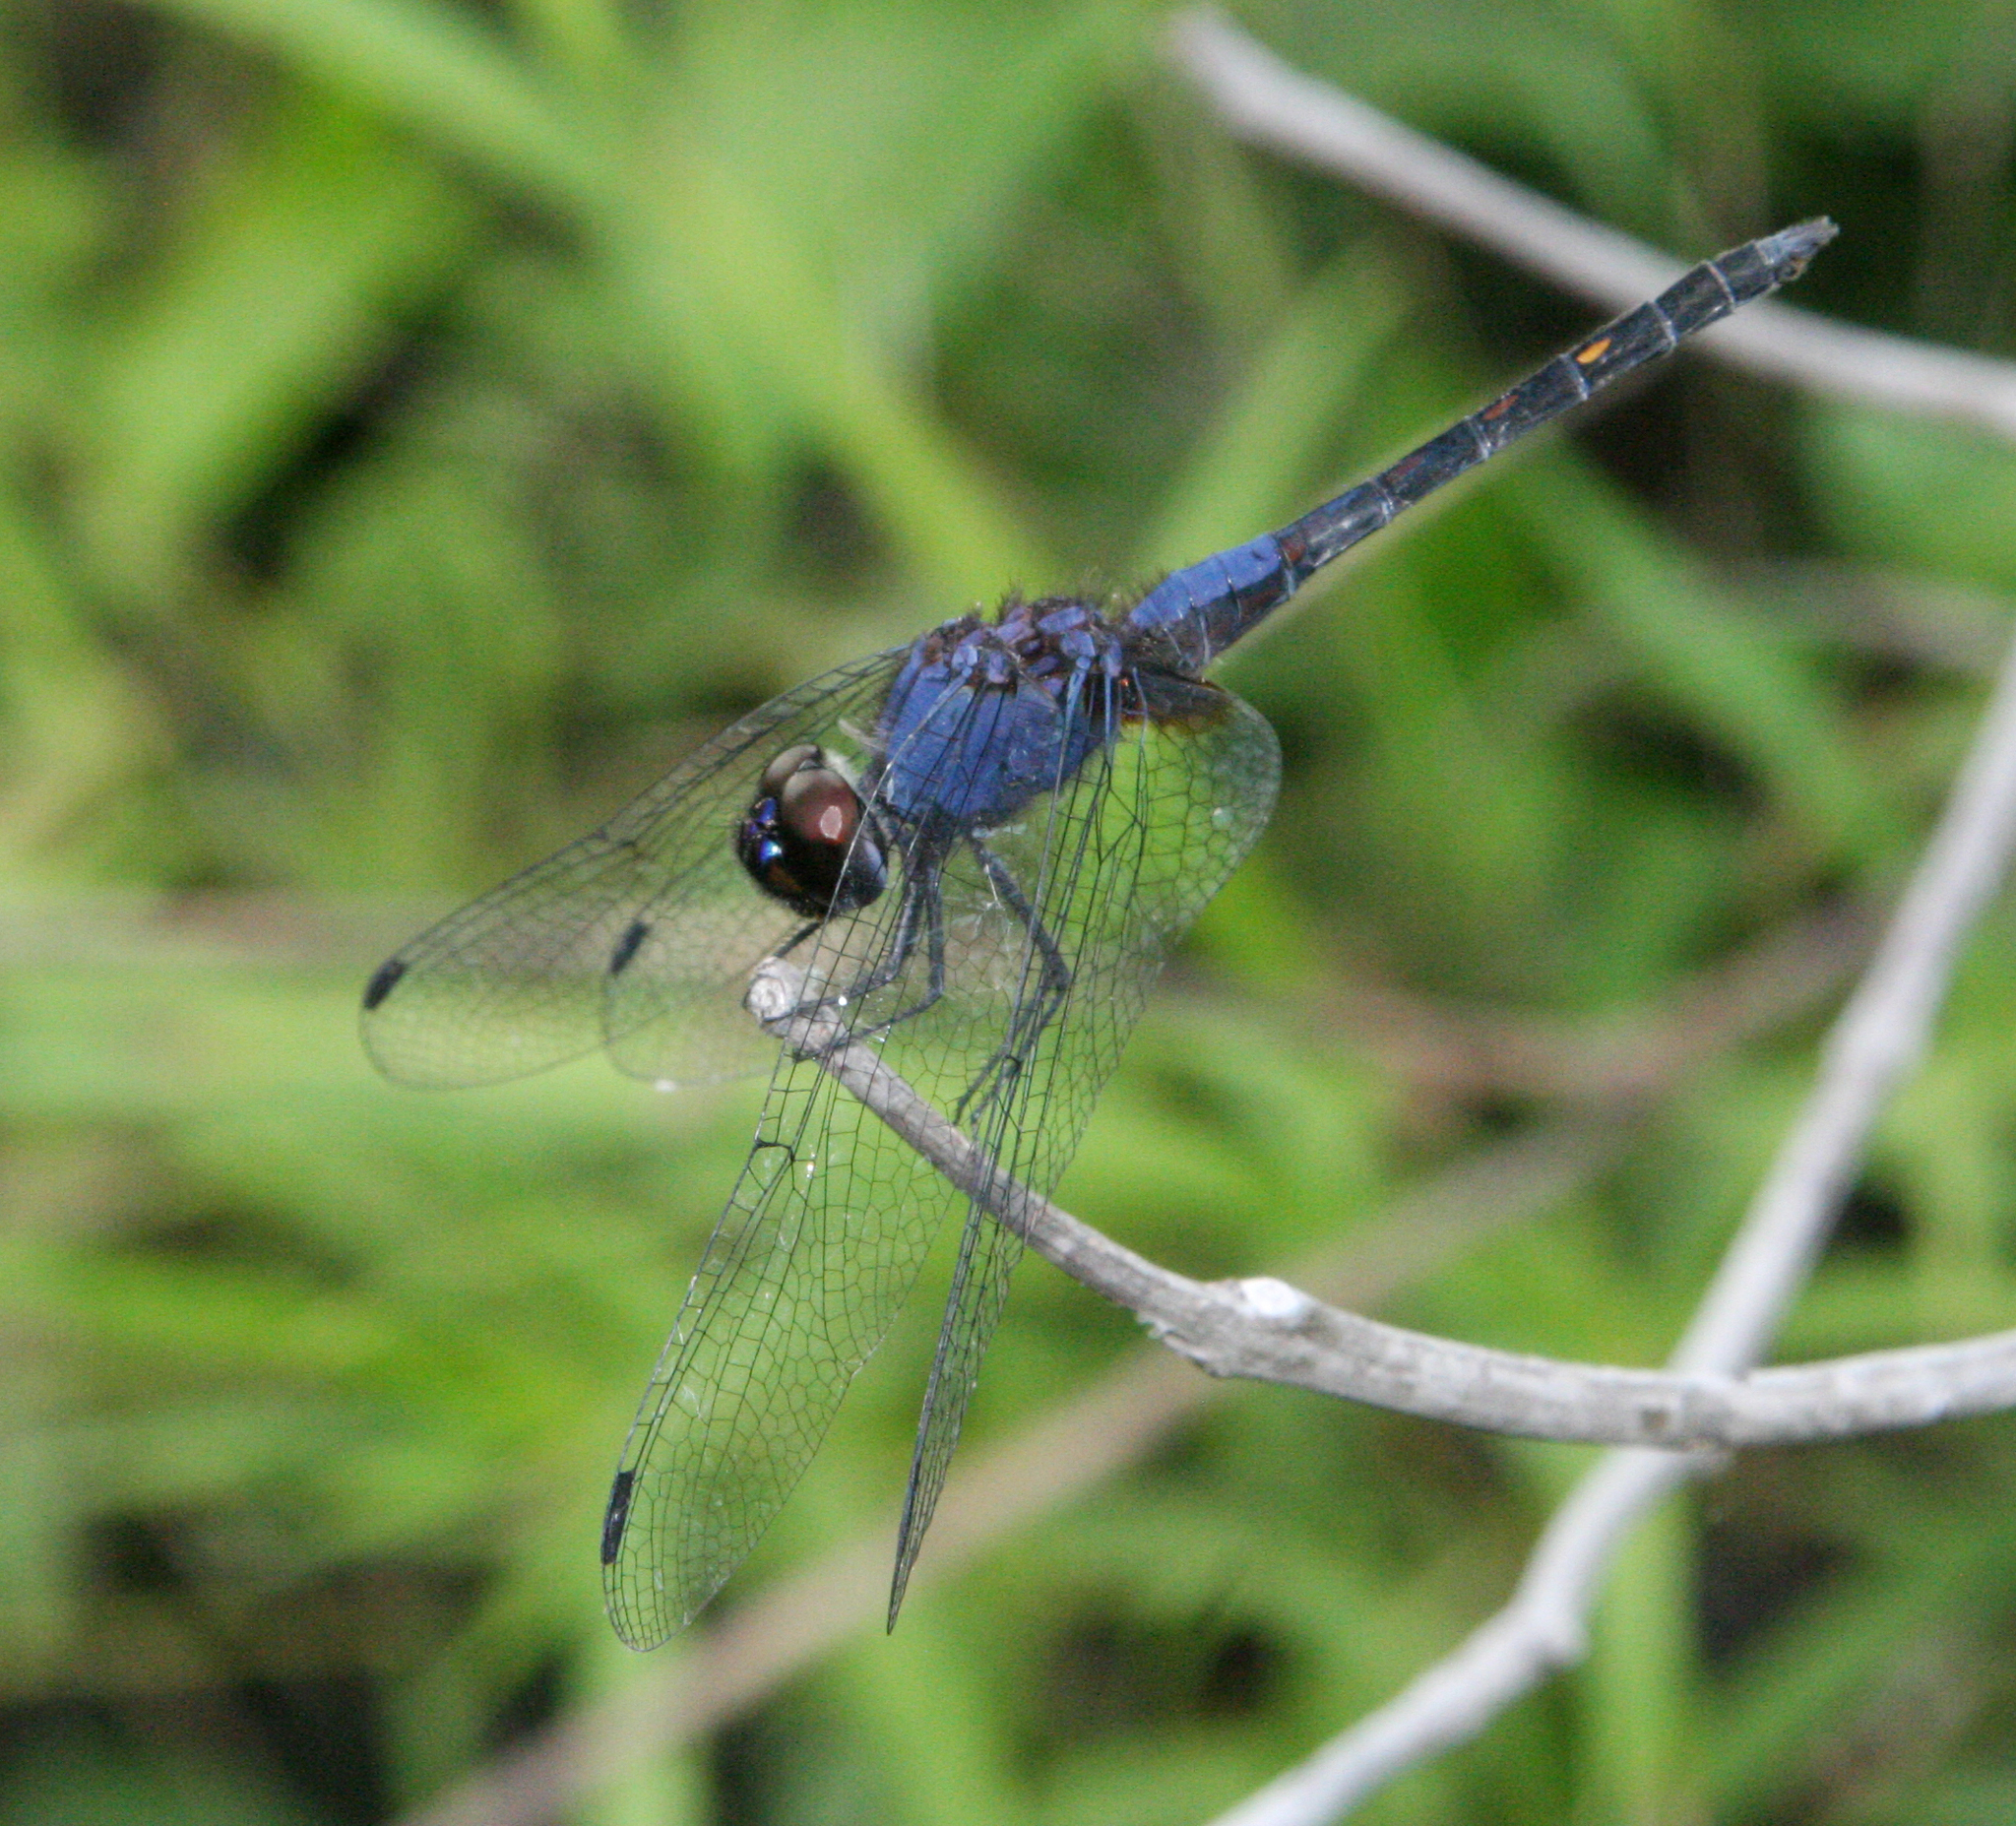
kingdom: Animalia
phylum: Arthropoda
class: Insecta
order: Odonata
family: Libellulidae
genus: Trithemis
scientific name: Trithemis festiva
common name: Indigo dropwing
